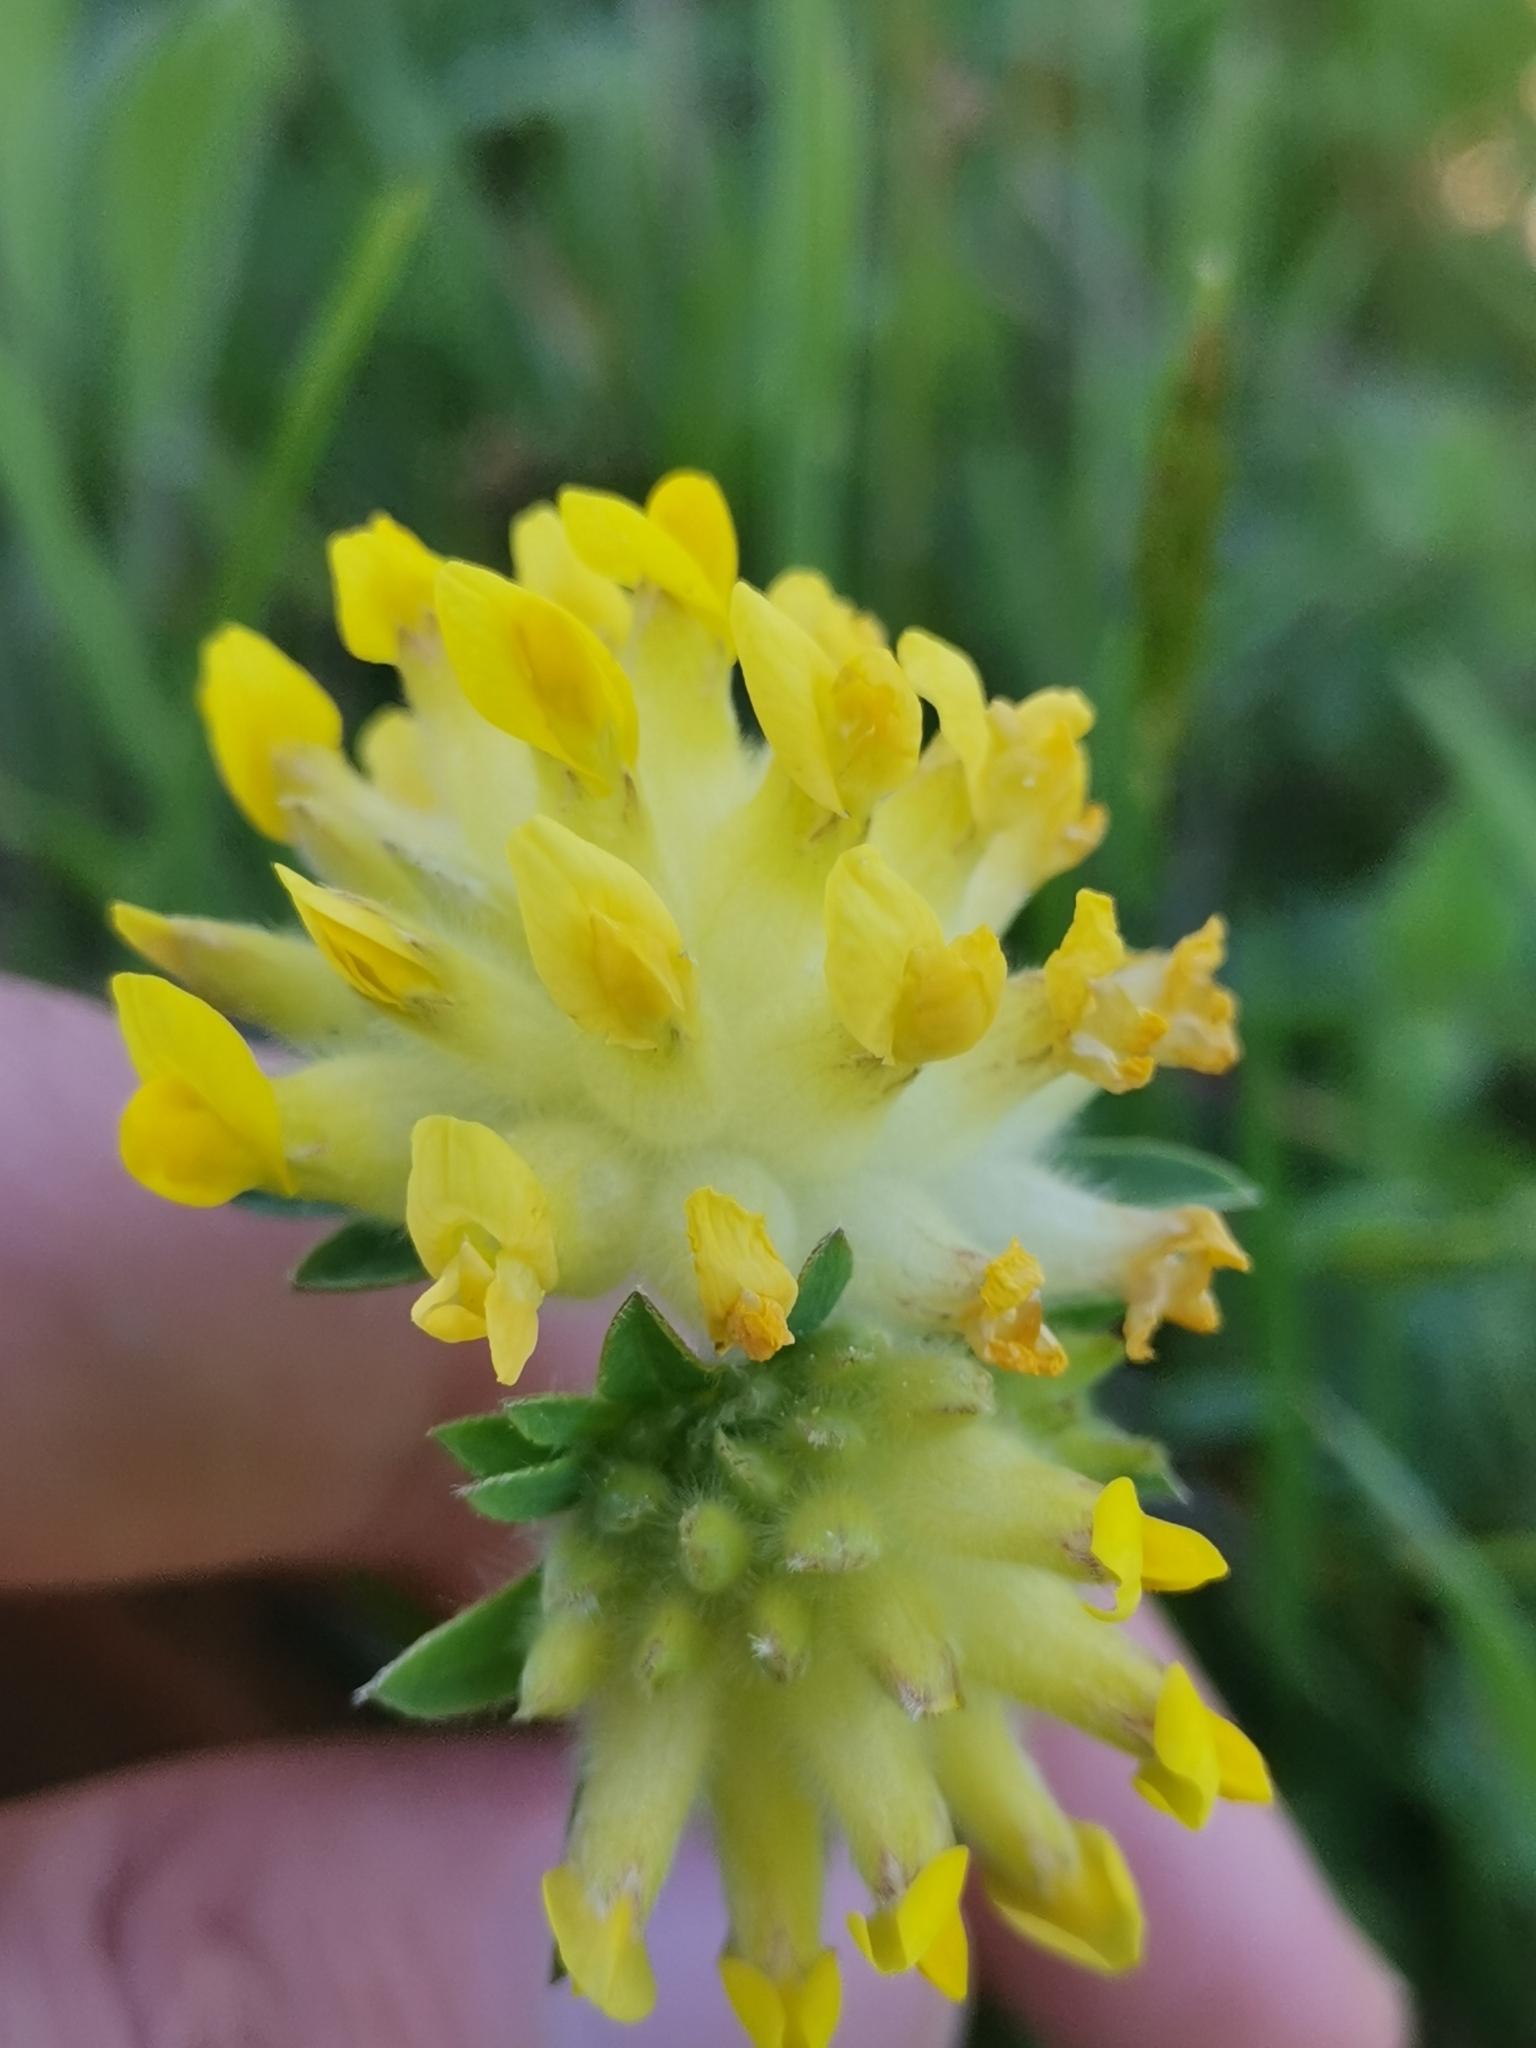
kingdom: Plantae
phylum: Tracheophyta
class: Magnoliopsida
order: Fabales
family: Fabaceae
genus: Anthyllis
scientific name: Anthyllis vulneraria
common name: Kidney vetch
